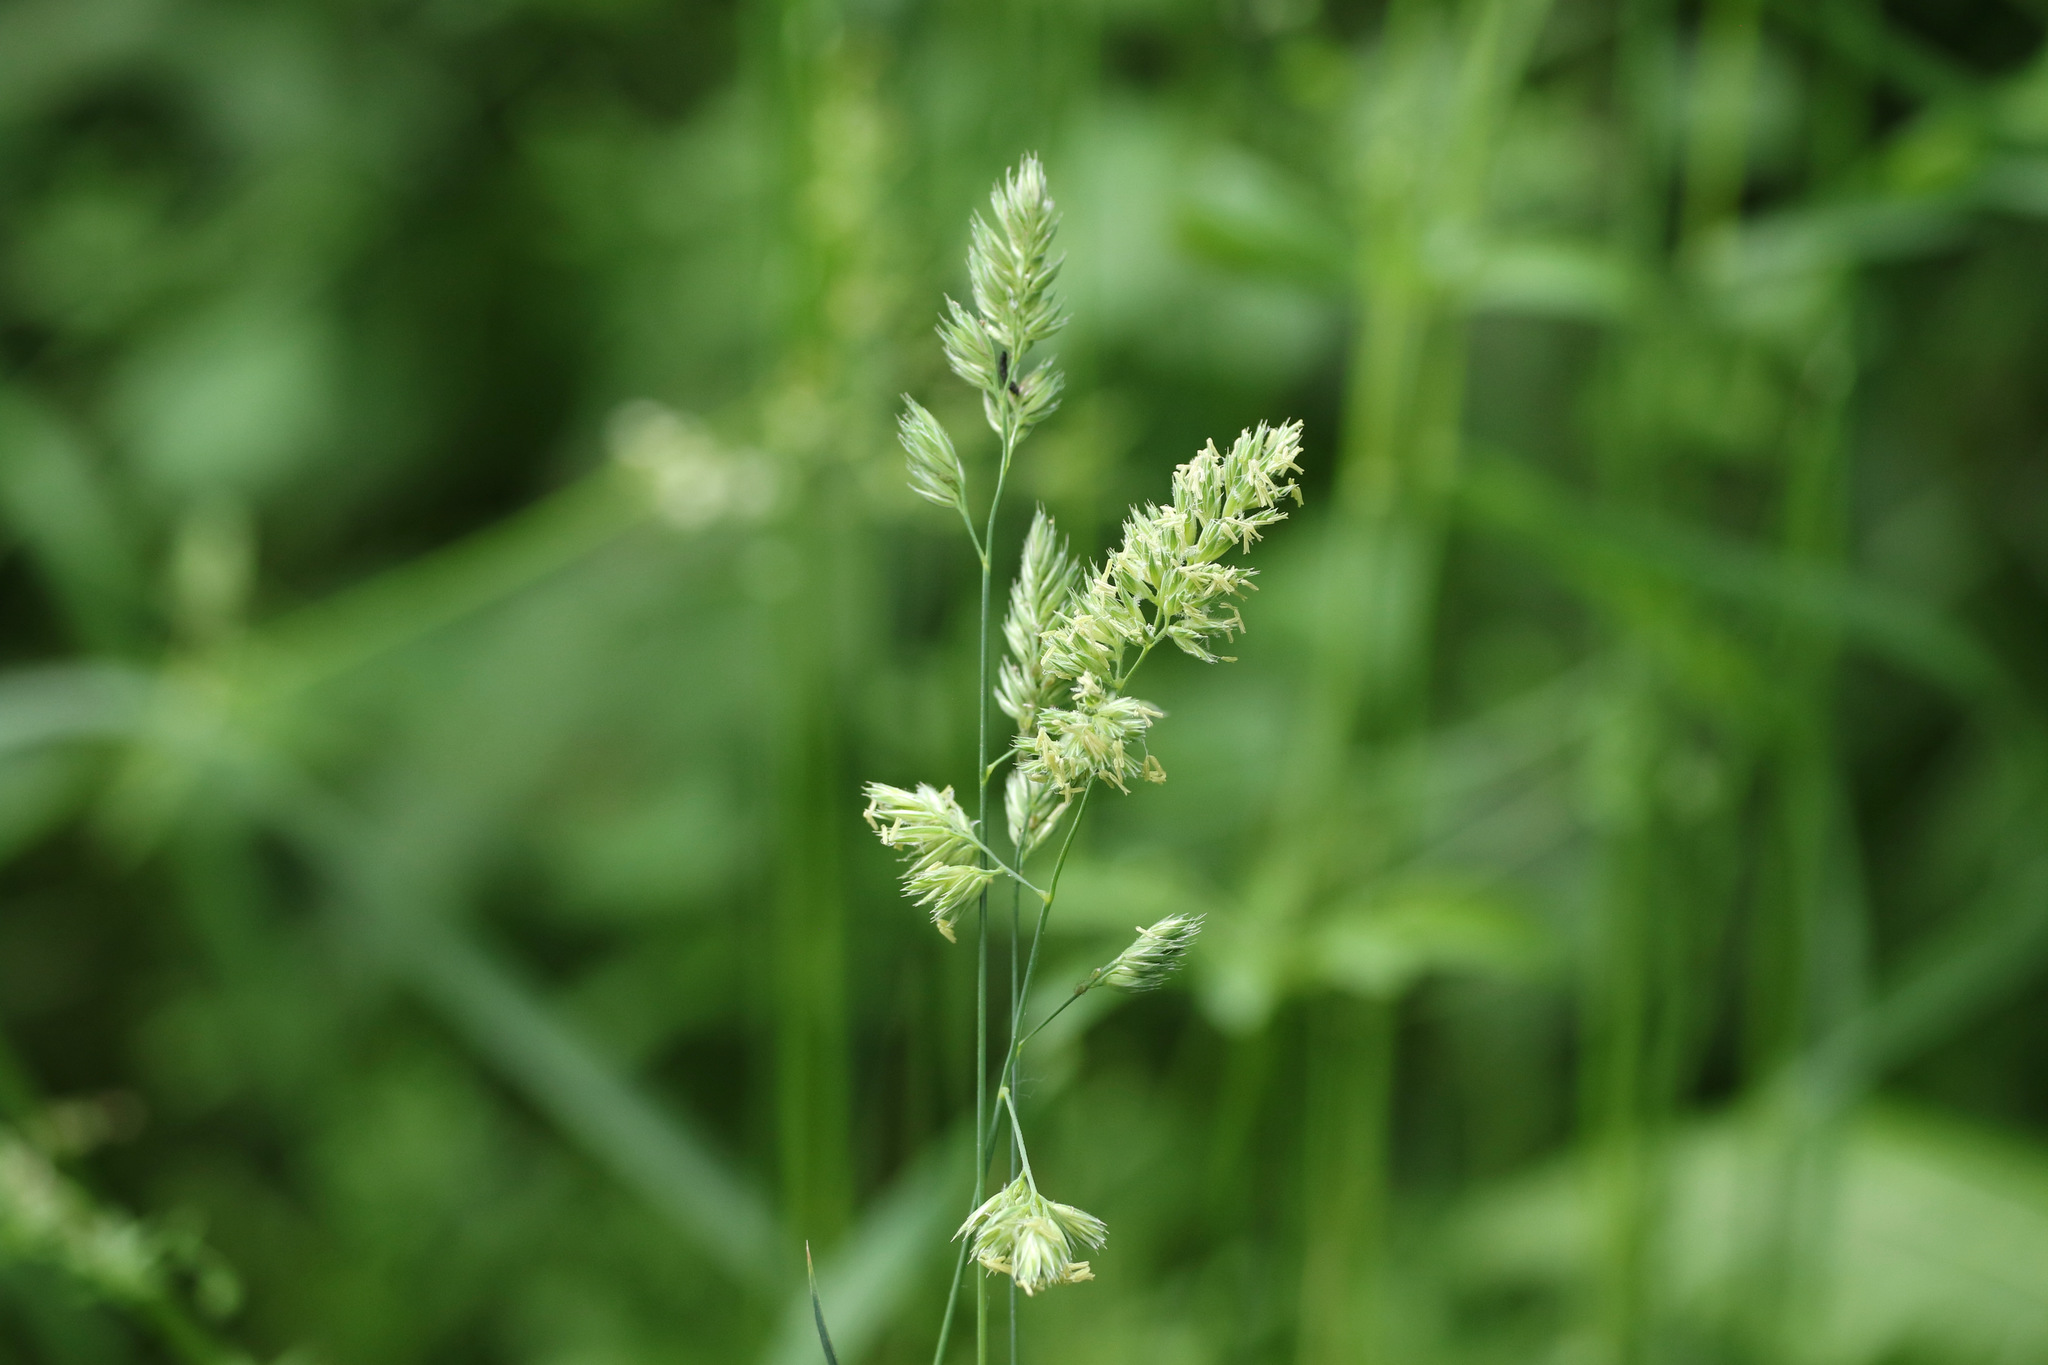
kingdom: Plantae
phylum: Tracheophyta
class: Liliopsida
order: Poales
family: Poaceae
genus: Dactylis
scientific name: Dactylis glomerata
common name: Orchardgrass
